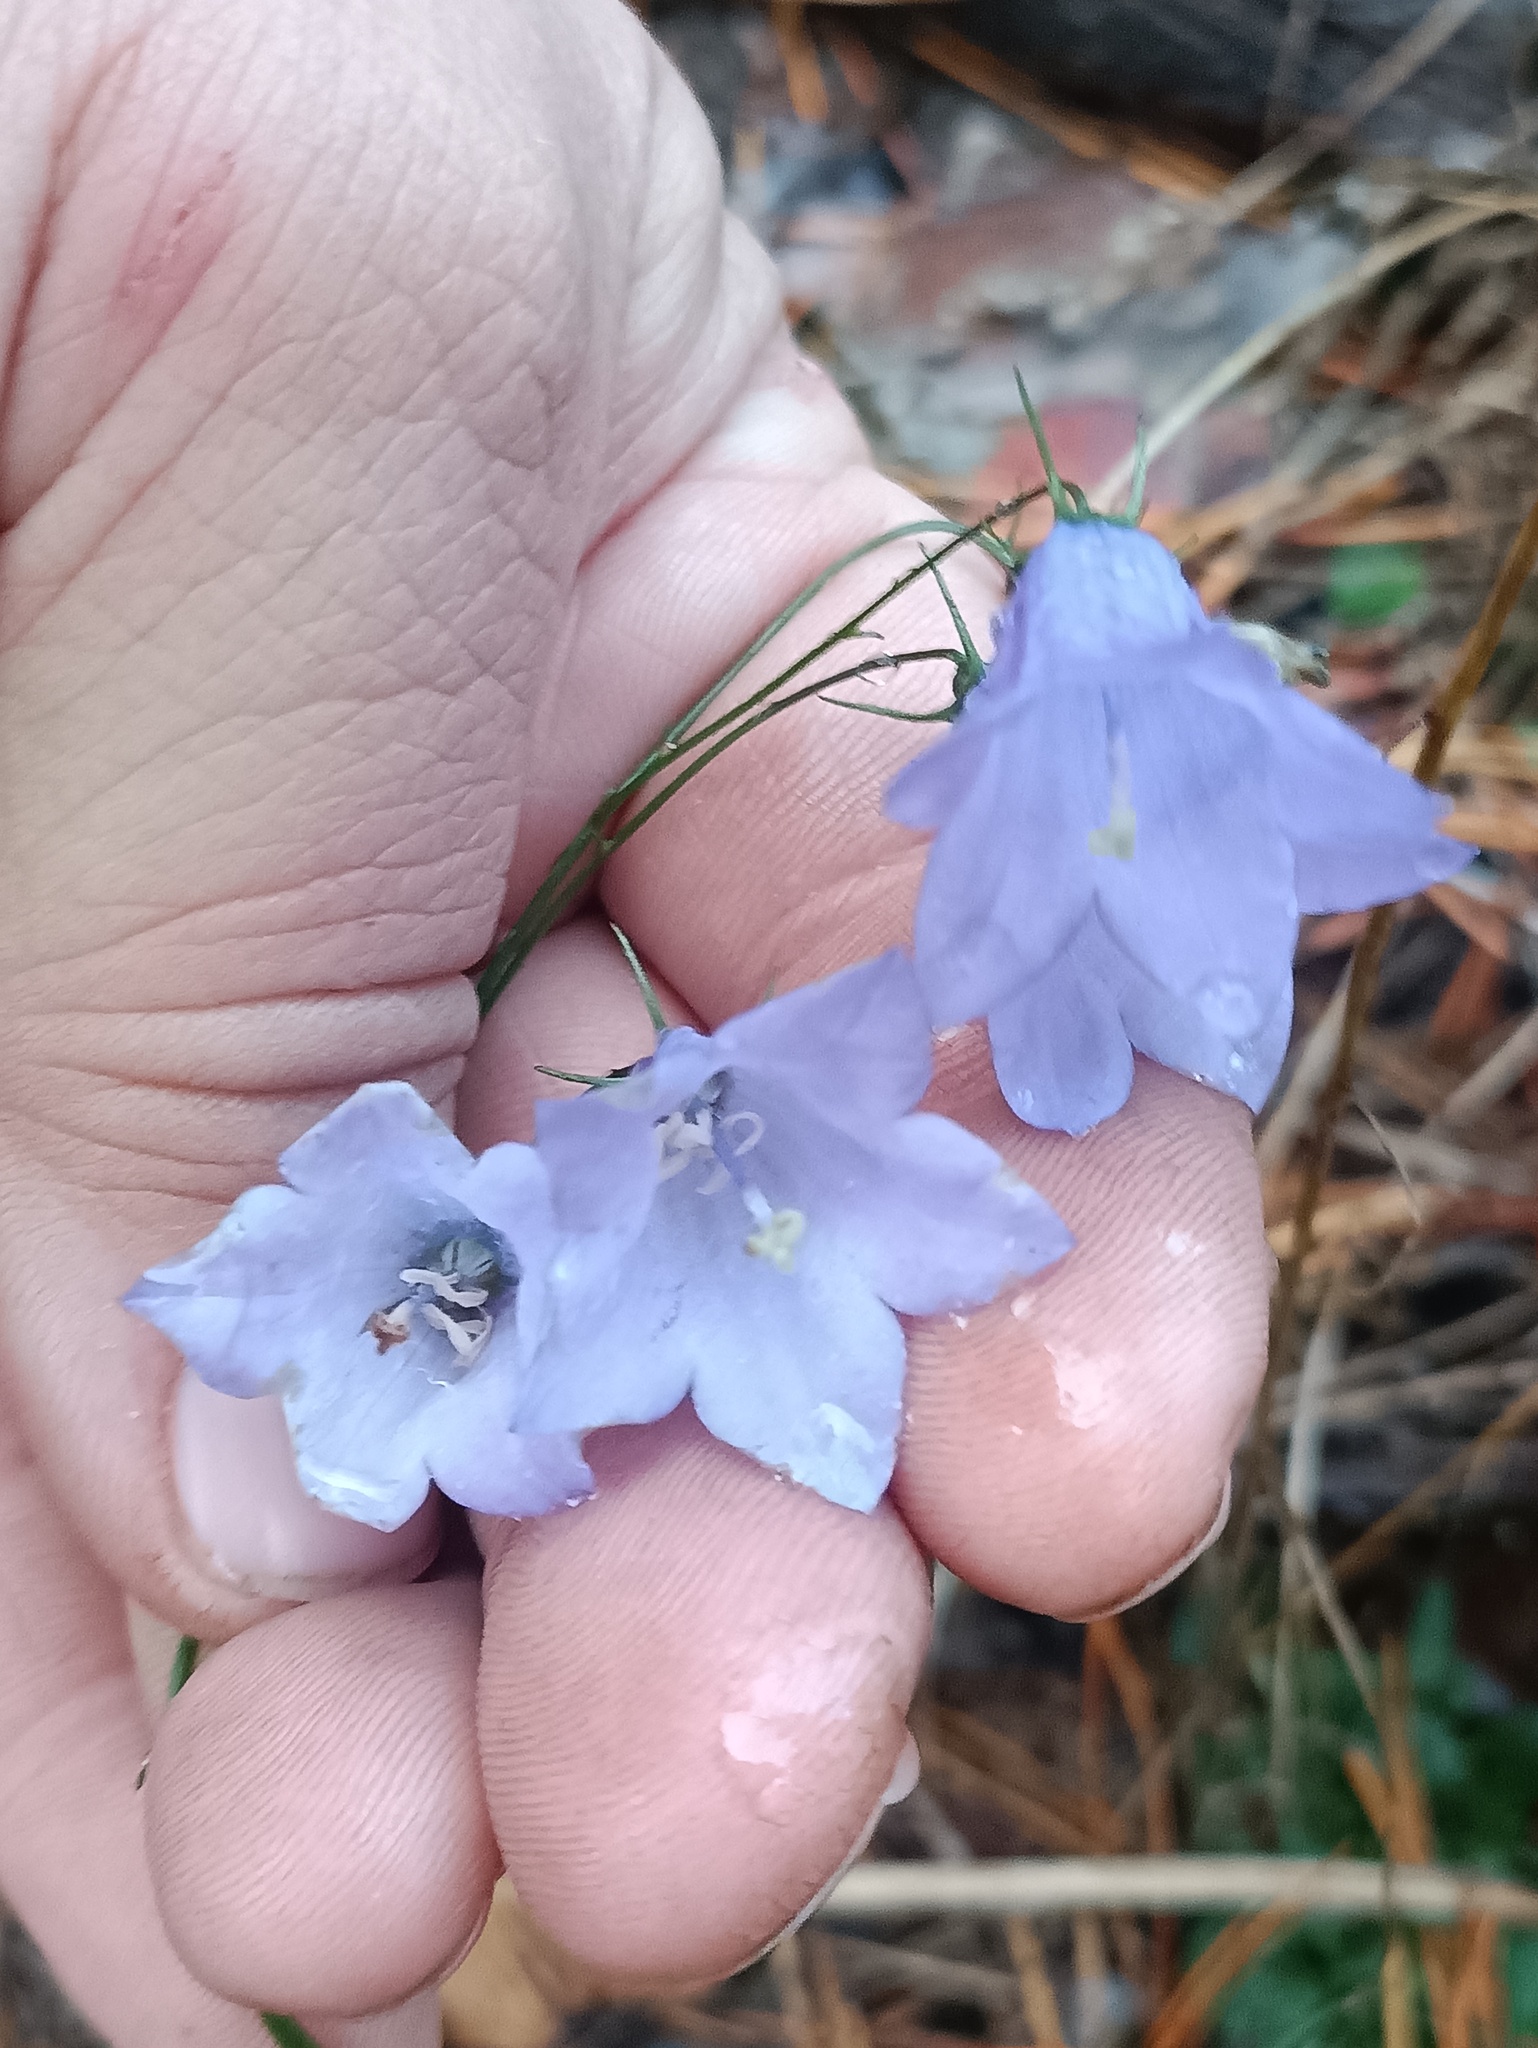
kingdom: Plantae
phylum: Tracheophyta
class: Magnoliopsida
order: Asterales
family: Campanulaceae
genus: Campanula
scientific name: Campanula rotundifolia
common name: Harebell
